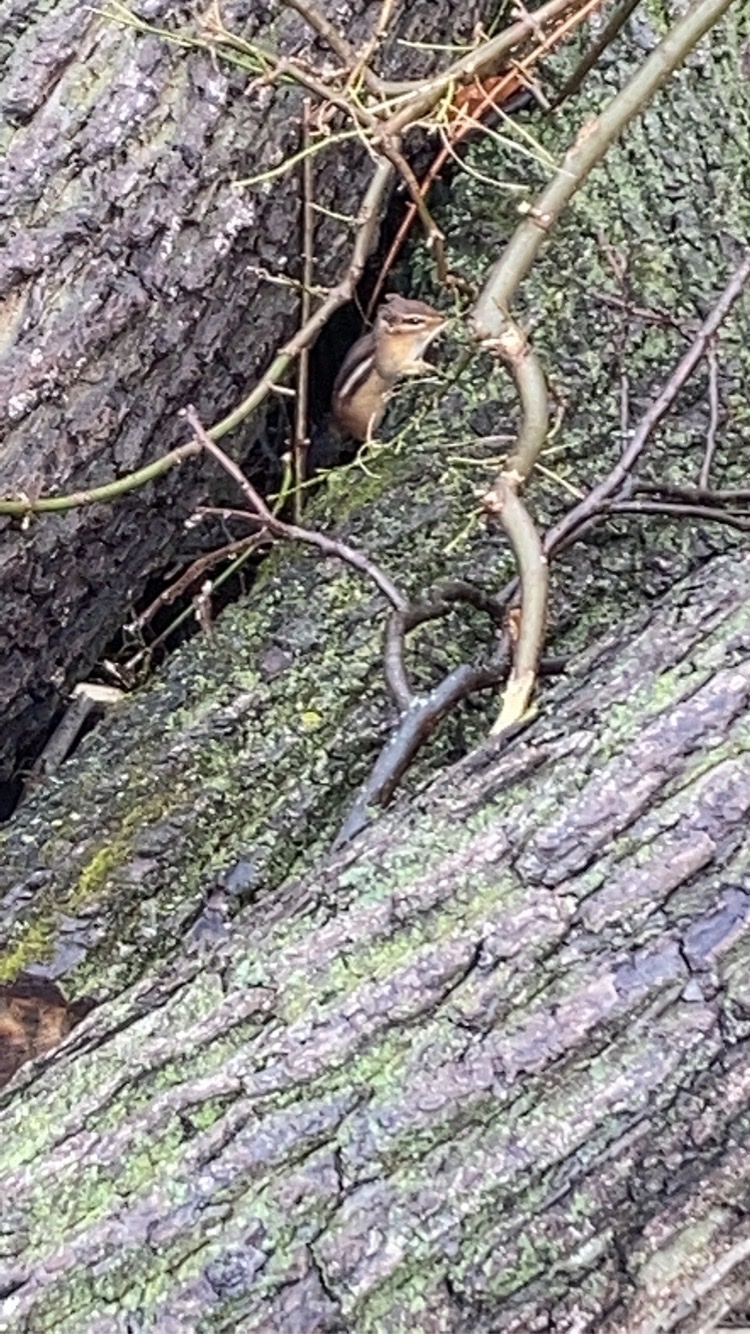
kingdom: Animalia
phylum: Chordata
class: Mammalia
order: Rodentia
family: Sciuridae
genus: Tamias
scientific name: Tamias striatus
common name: Eastern chipmunk
